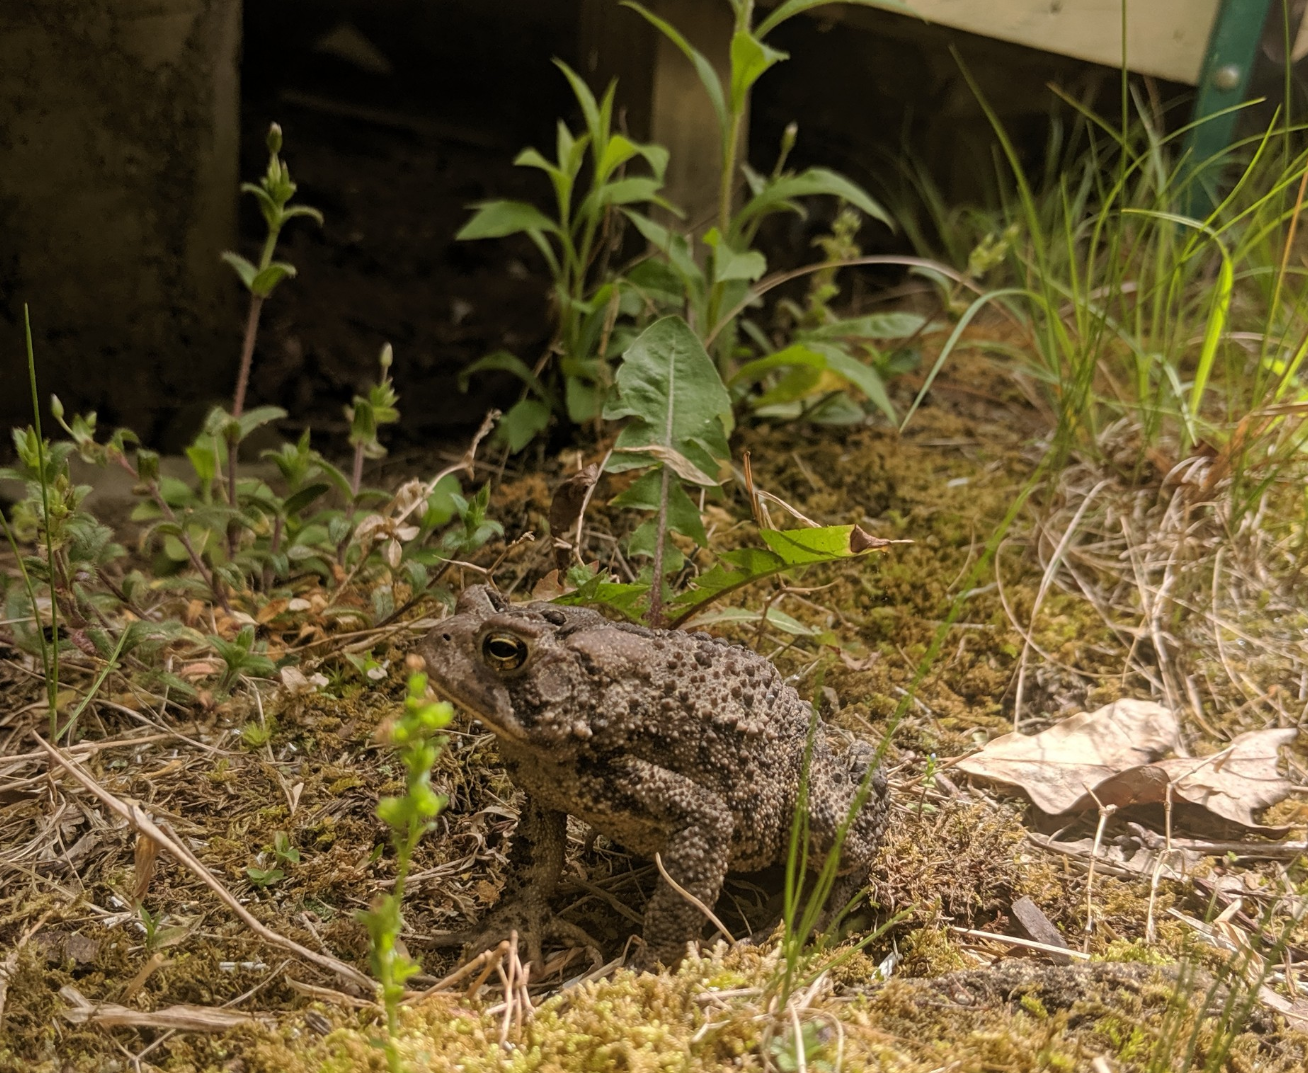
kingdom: Animalia
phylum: Chordata
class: Amphibia
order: Anura
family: Bufonidae
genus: Anaxyrus
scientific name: Anaxyrus americanus
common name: American toad
